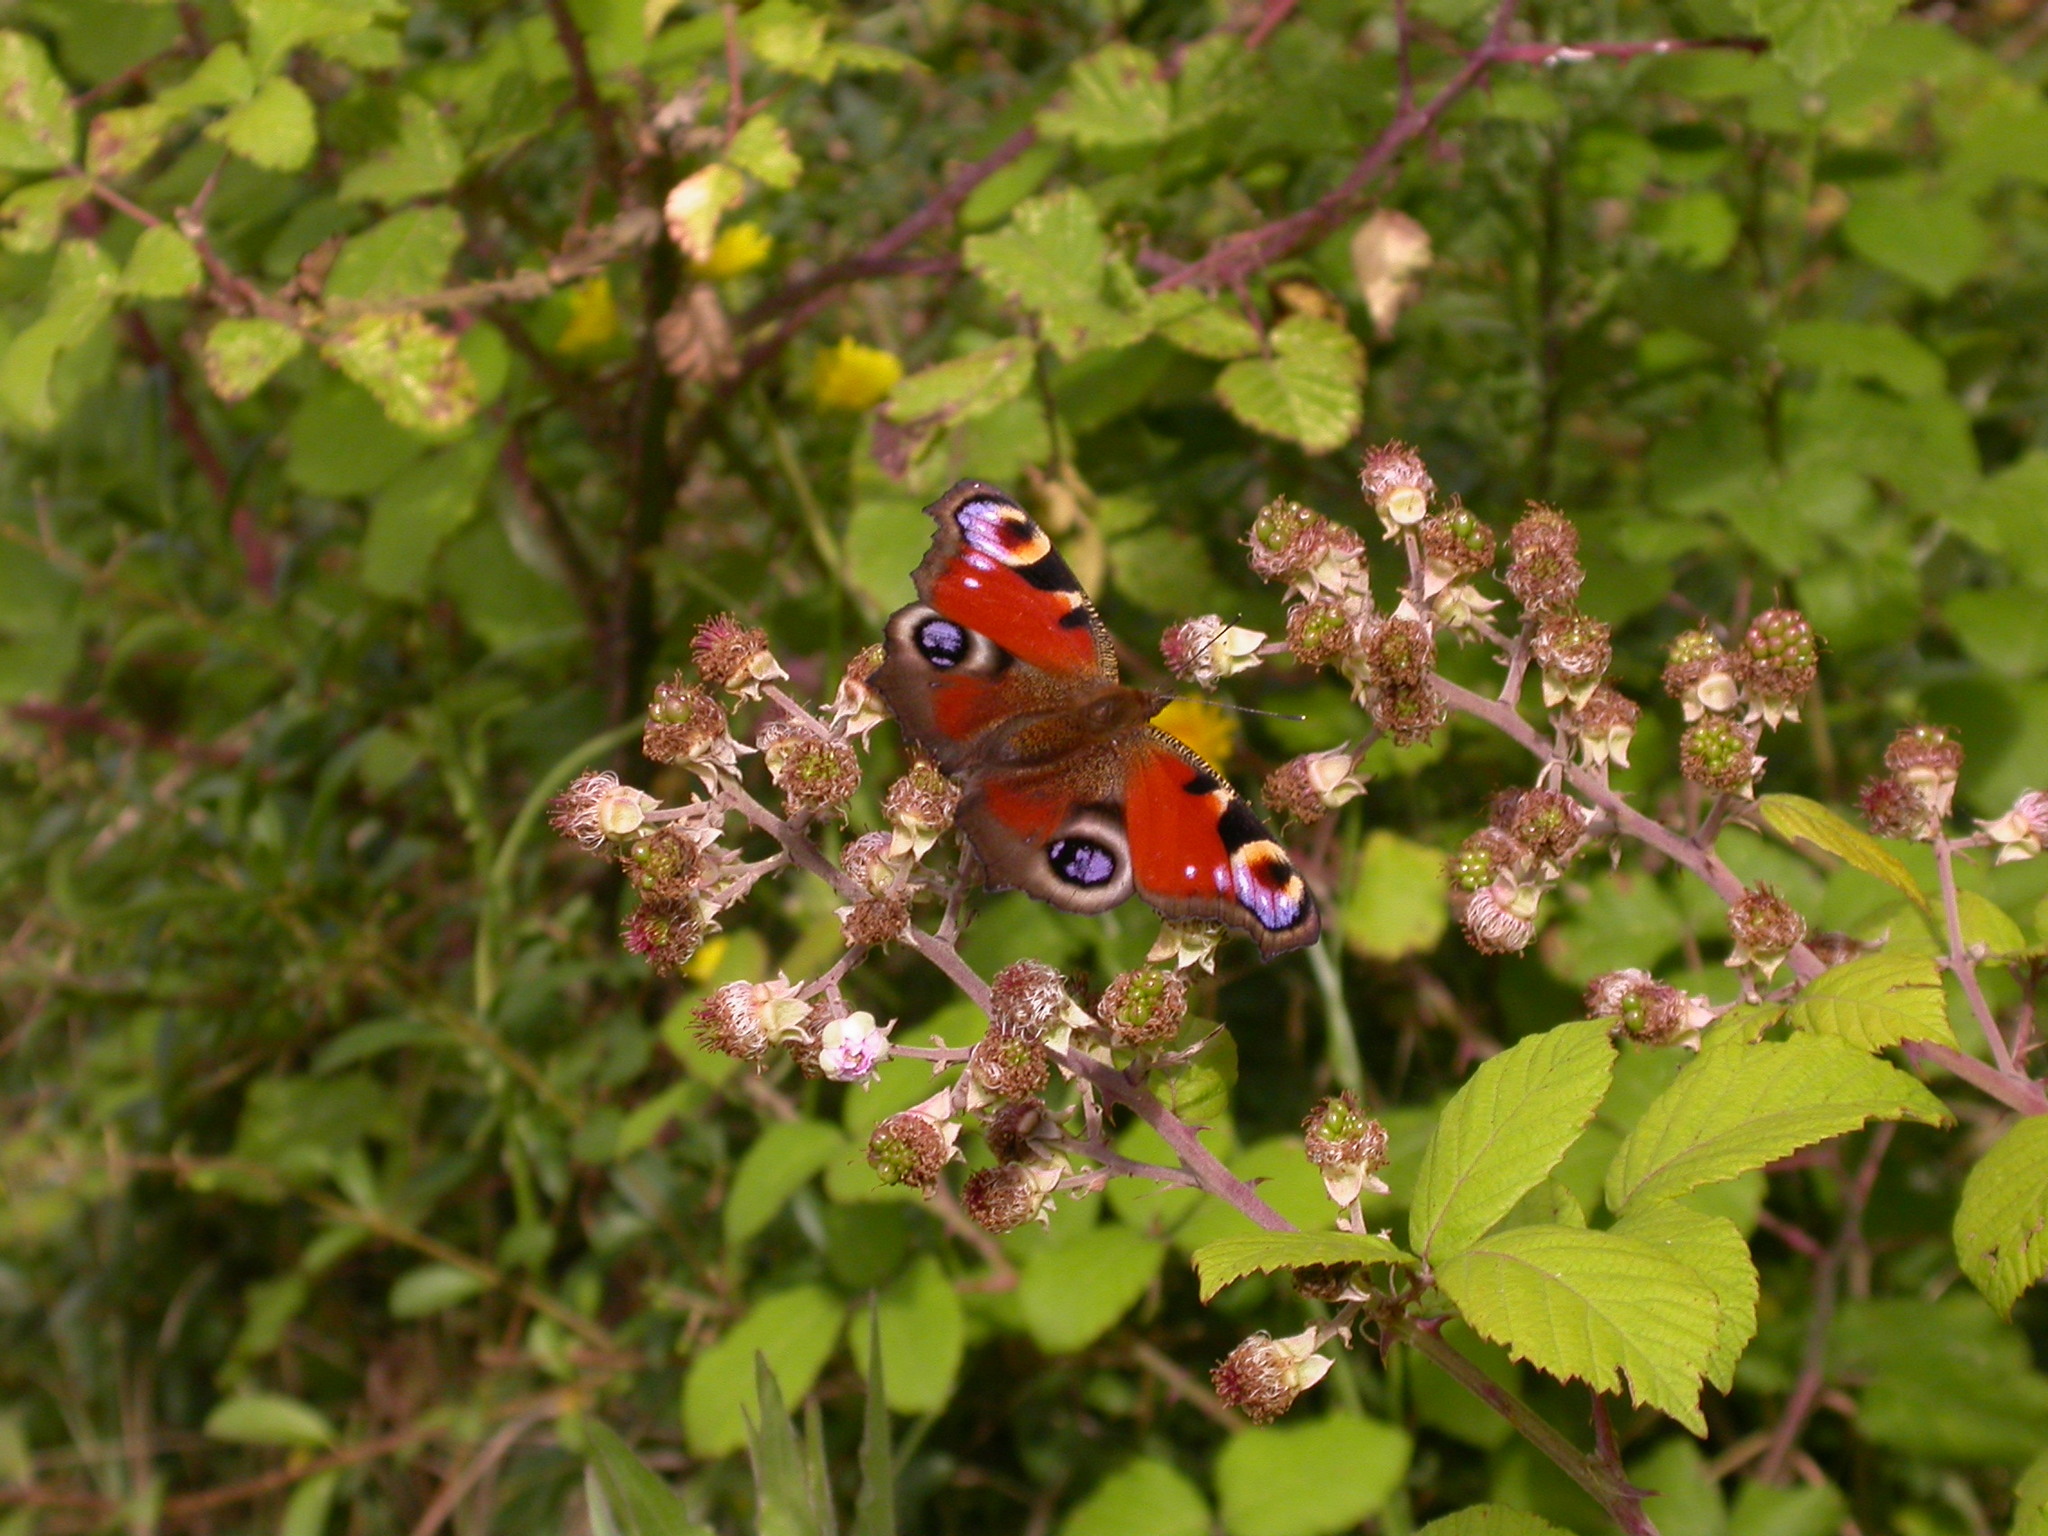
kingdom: Animalia
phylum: Arthropoda
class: Insecta
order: Lepidoptera
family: Nymphalidae
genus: Aglais
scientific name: Aglais io
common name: Peacock
